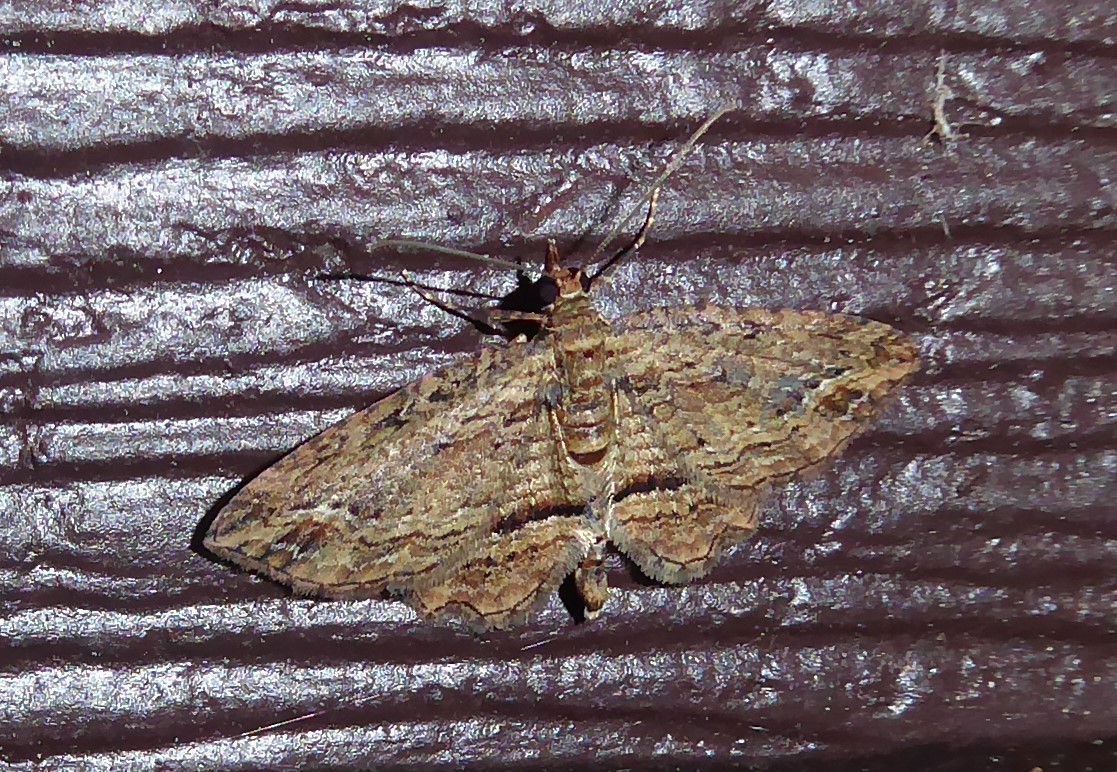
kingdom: Animalia
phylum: Arthropoda
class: Insecta
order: Lepidoptera
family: Geometridae
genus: Chloroclystis
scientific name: Chloroclystis filata
